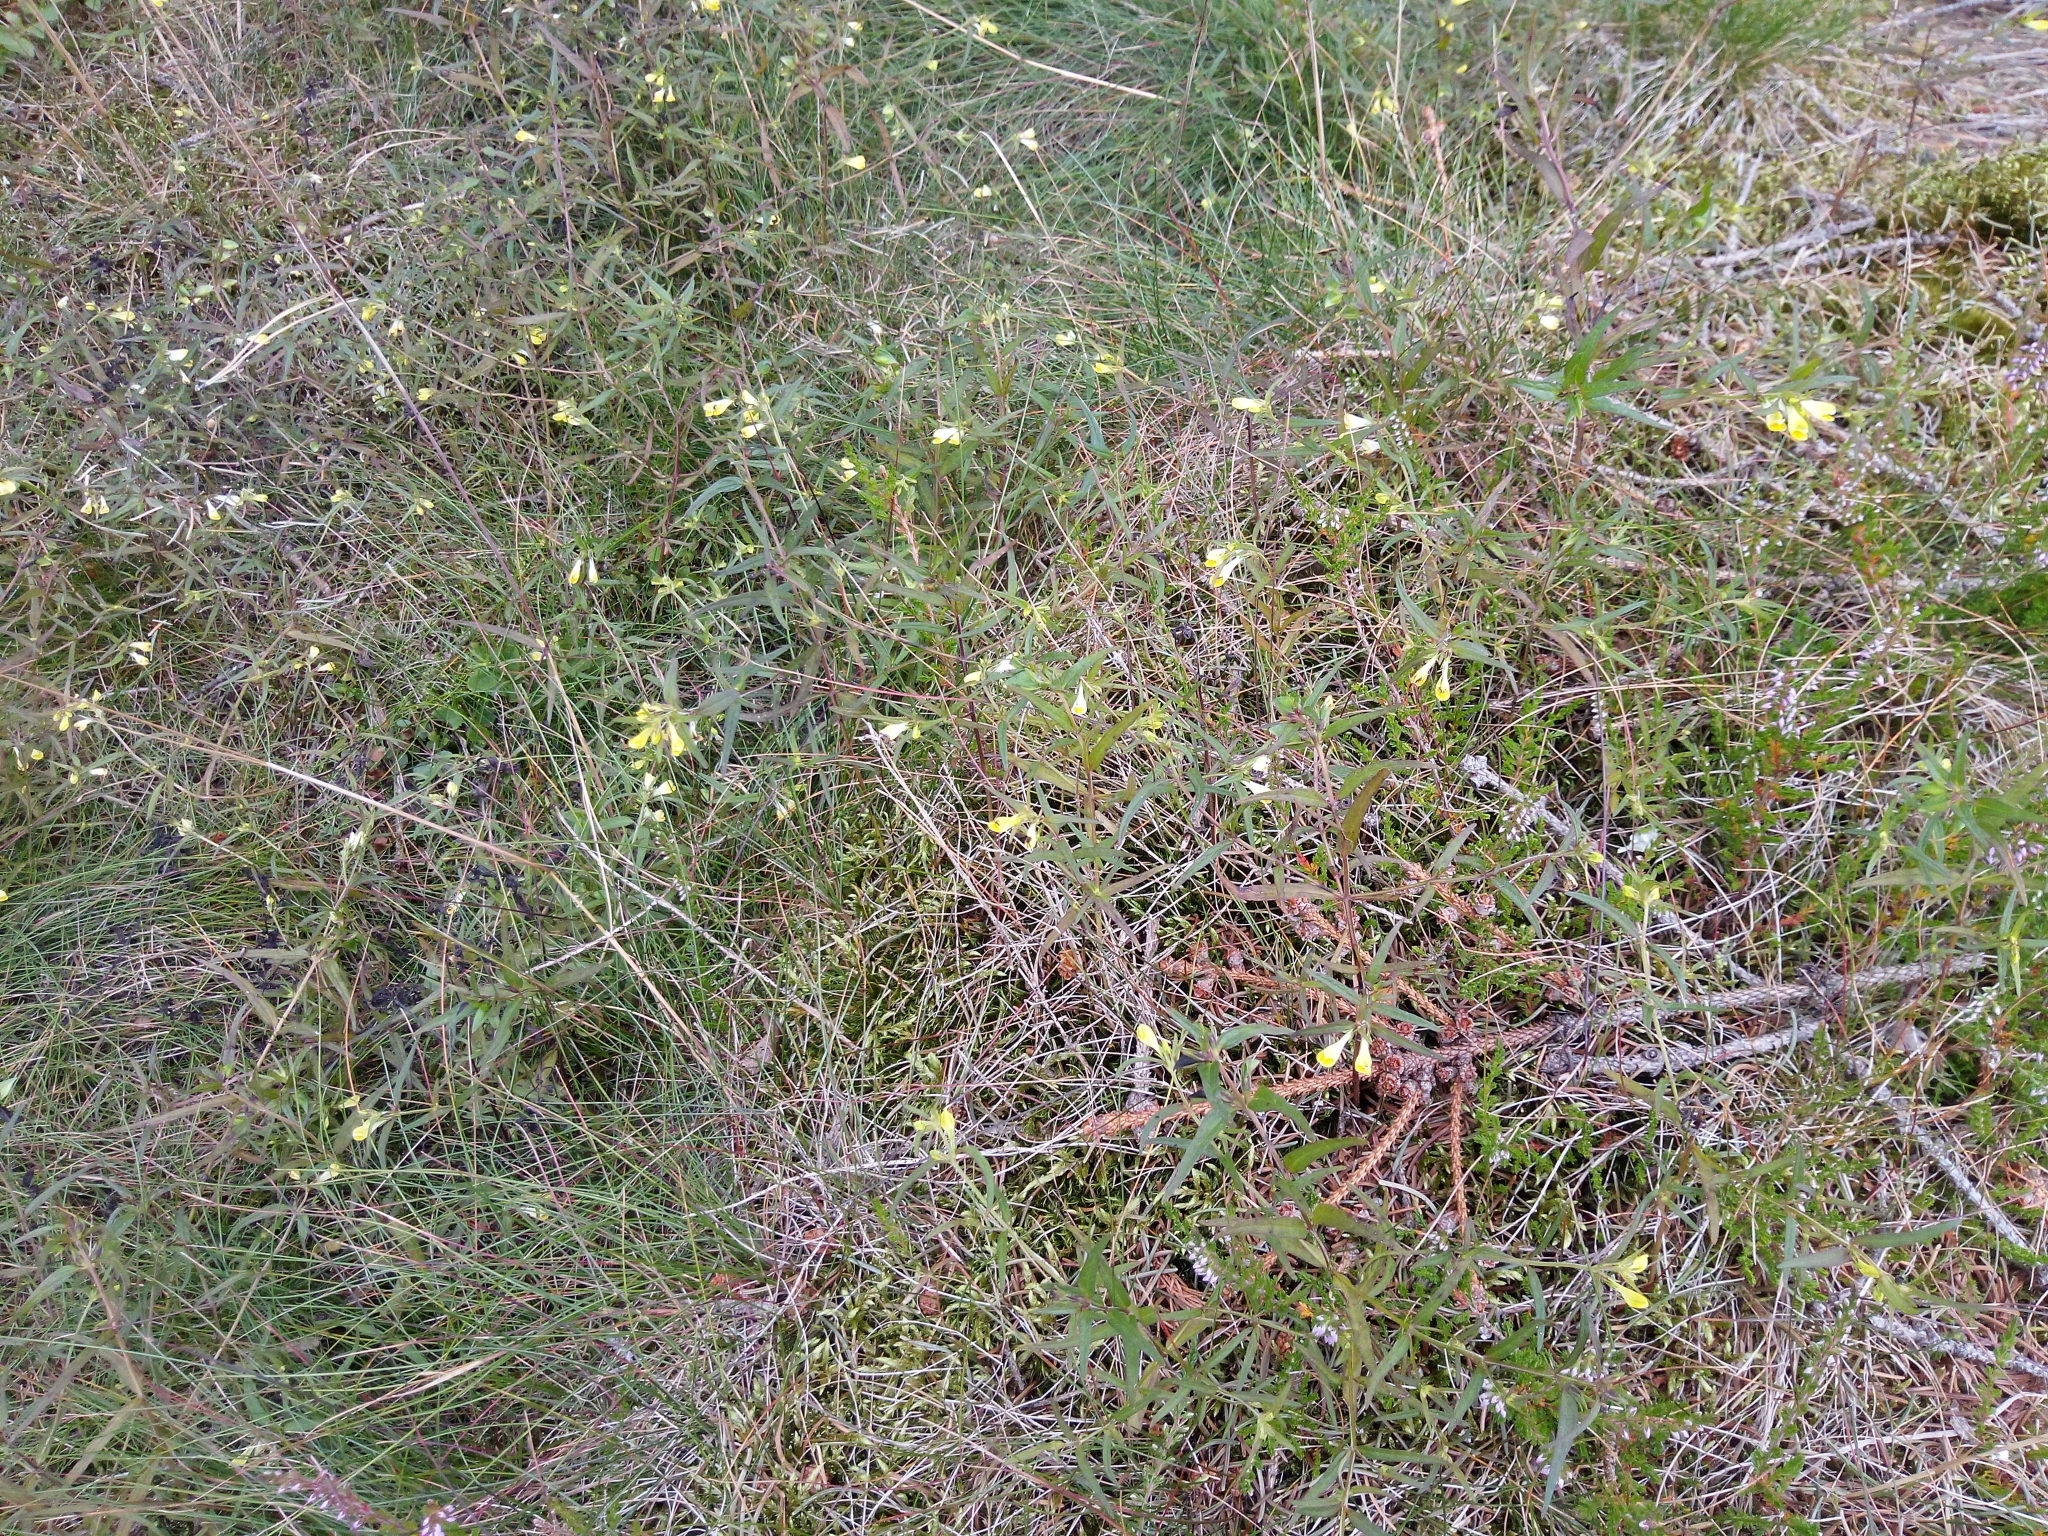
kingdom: Plantae
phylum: Tracheophyta
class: Magnoliopsida
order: Lamiales
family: Orobanchaceae
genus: Melampyrum
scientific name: Melampyrum pratense
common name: Common cow-wheat
